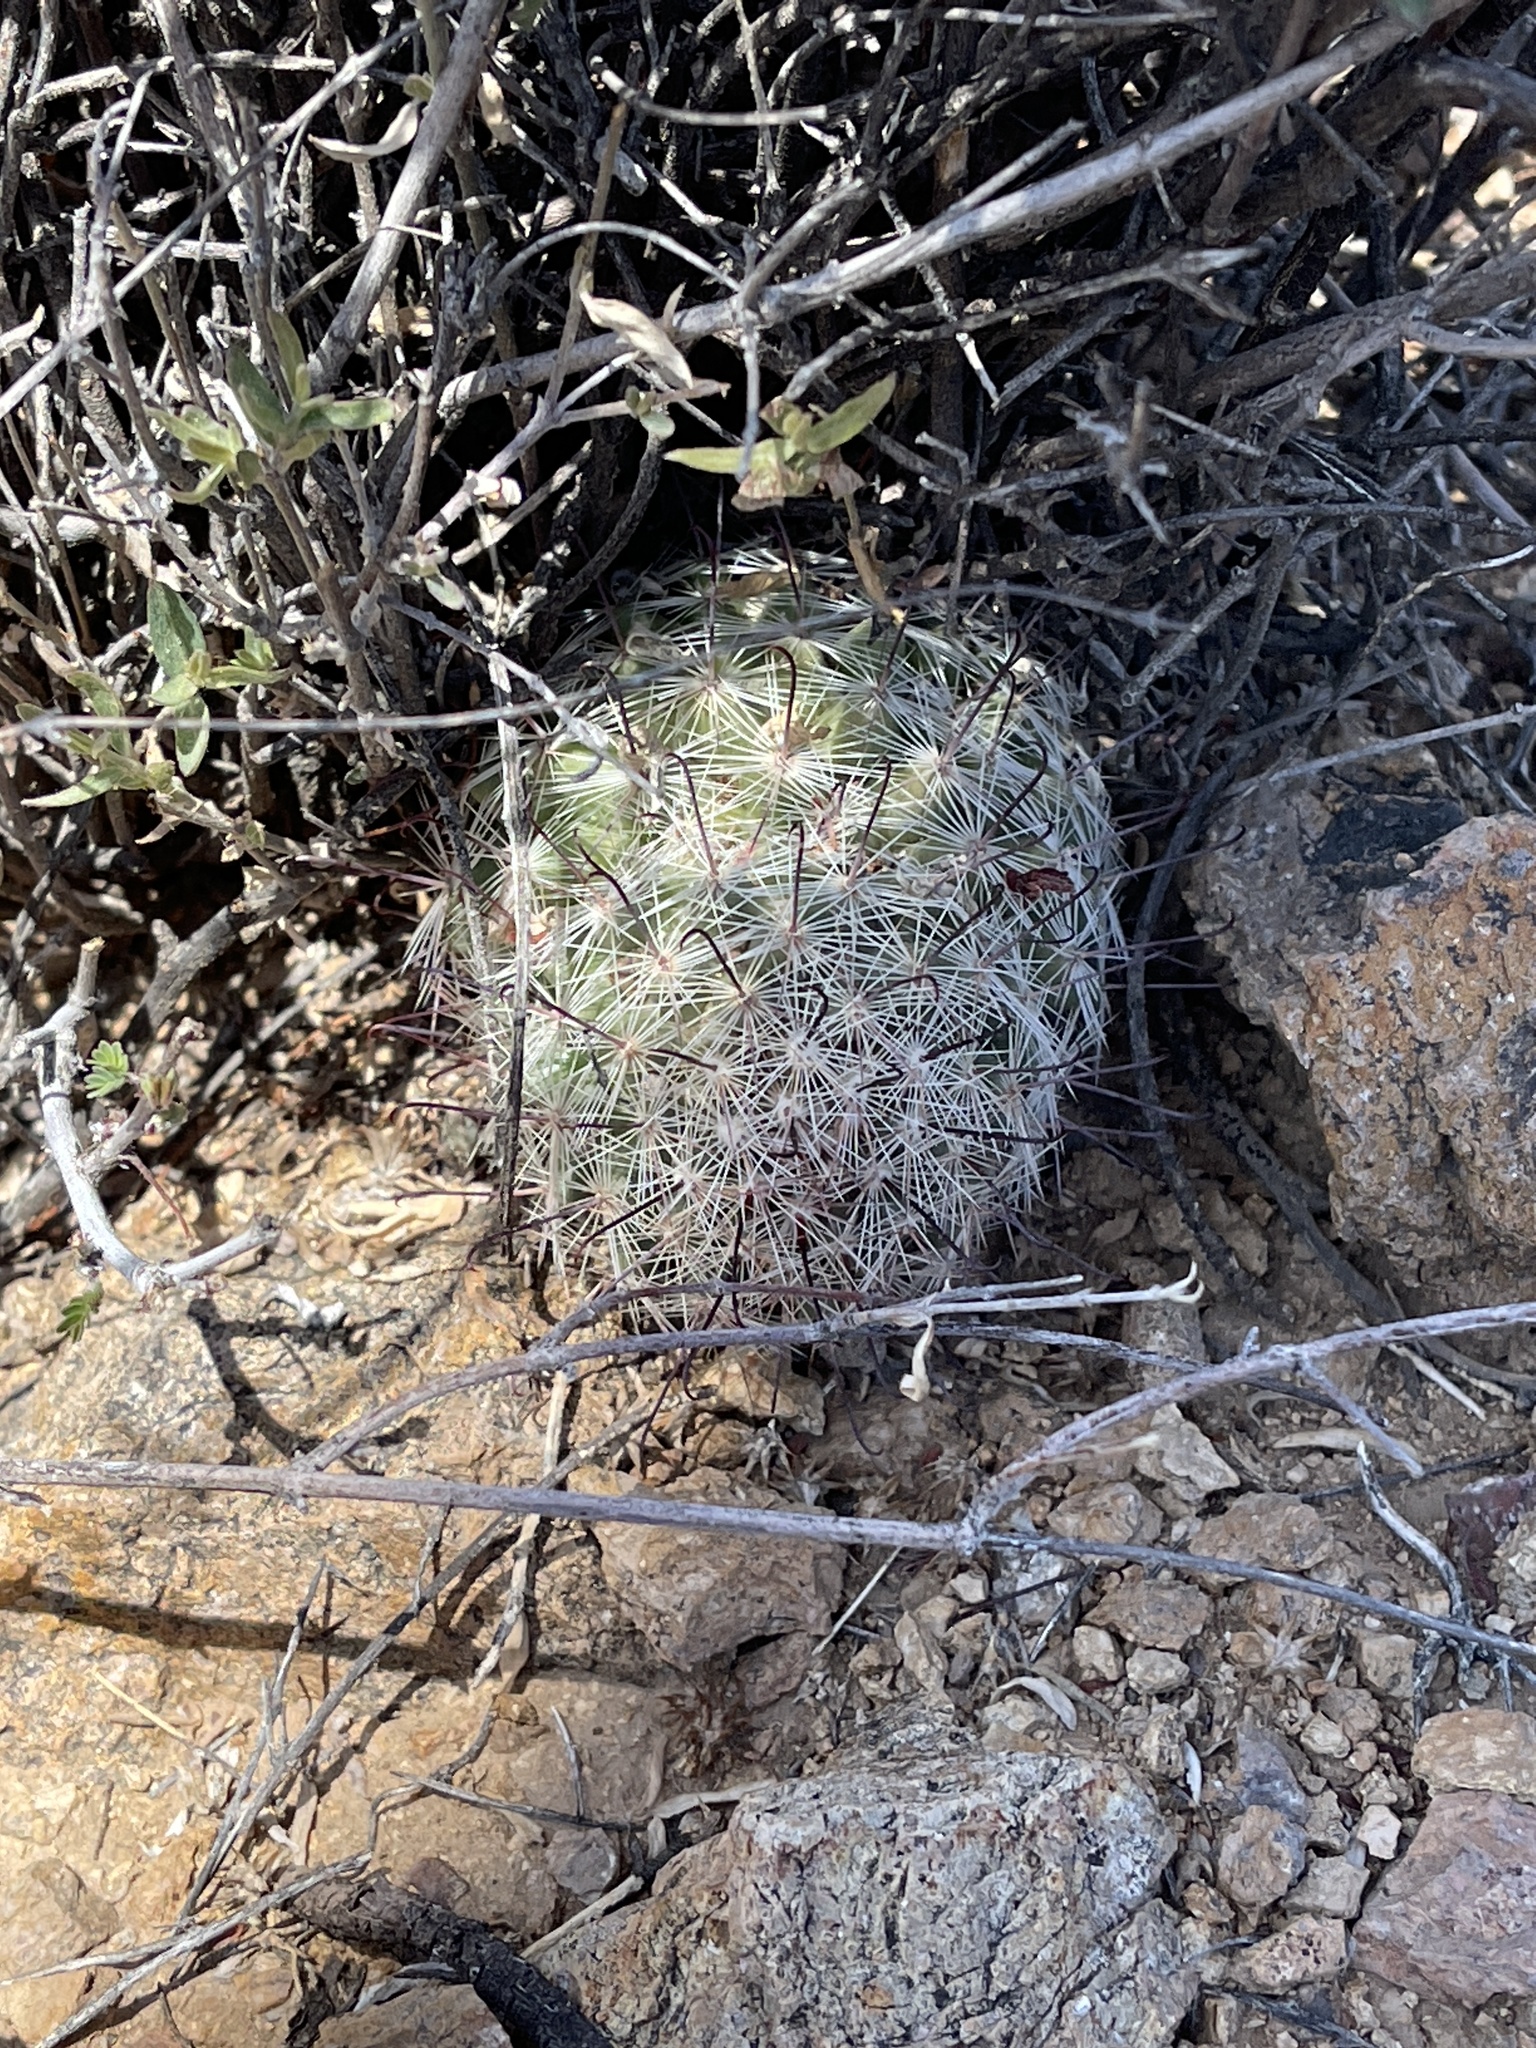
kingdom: Plantae
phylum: Tracheophyta
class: Magnoliopsida
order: Caryophyllales
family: Cactaceae
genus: Cochemiea
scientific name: Cochemiea grahamii
